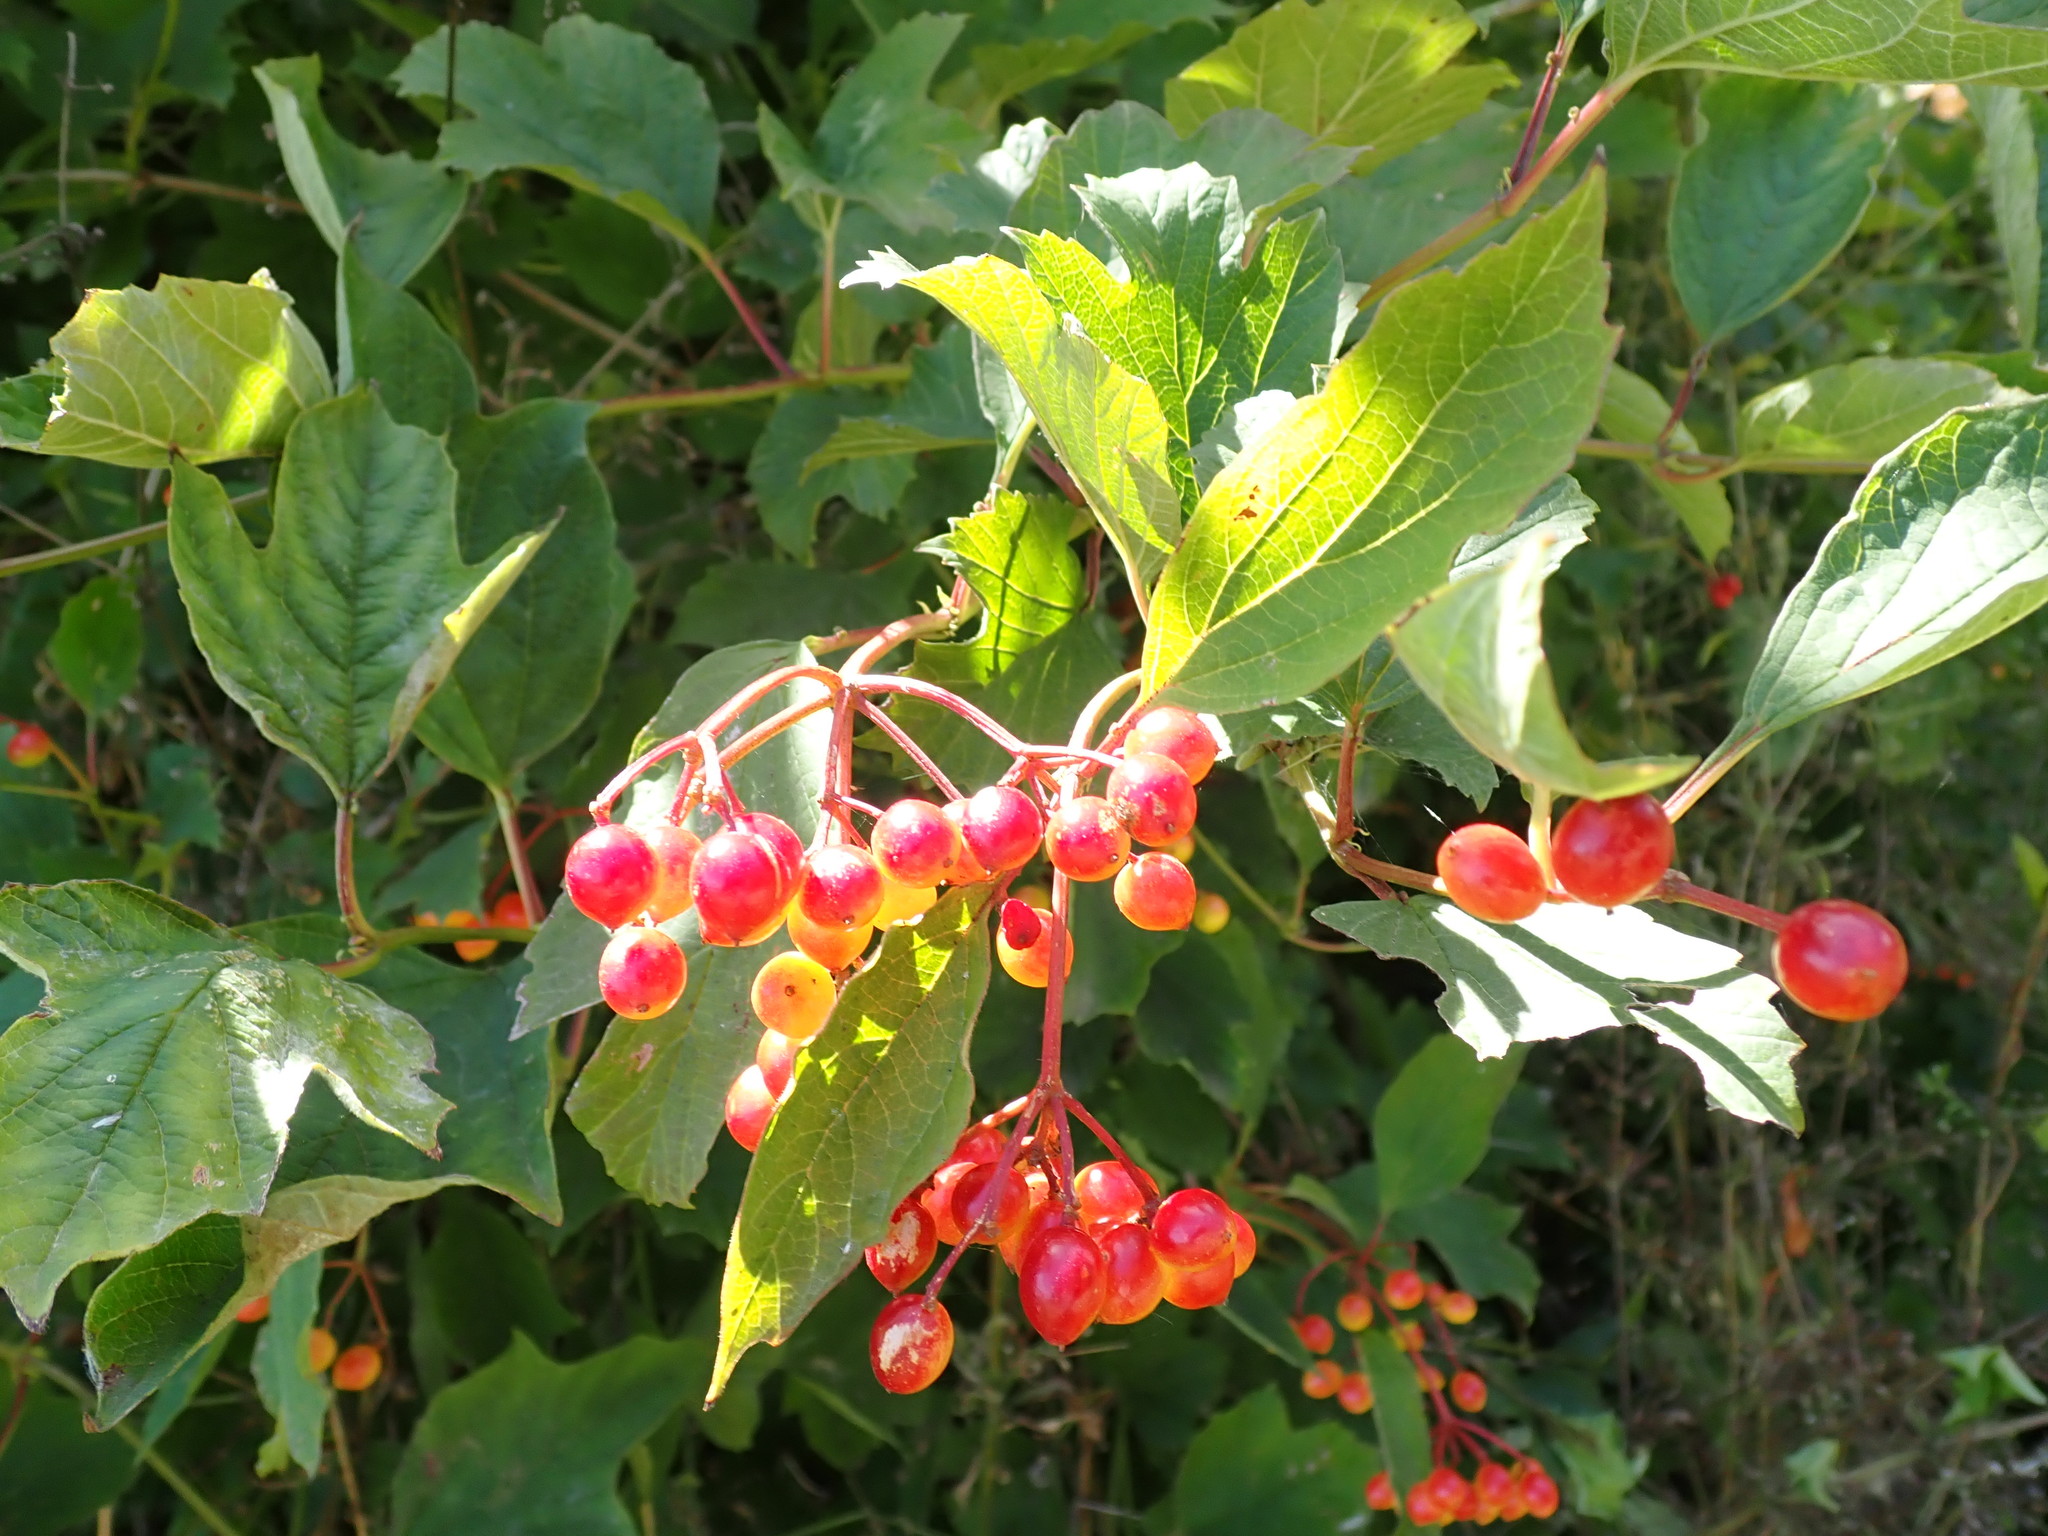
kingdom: Plantae
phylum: Tracheophyta
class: Magnoliopsida
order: Dipsacales
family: Viburnaceae
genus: Viburnum
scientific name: Viburnum opulus
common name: Guelder-rose
